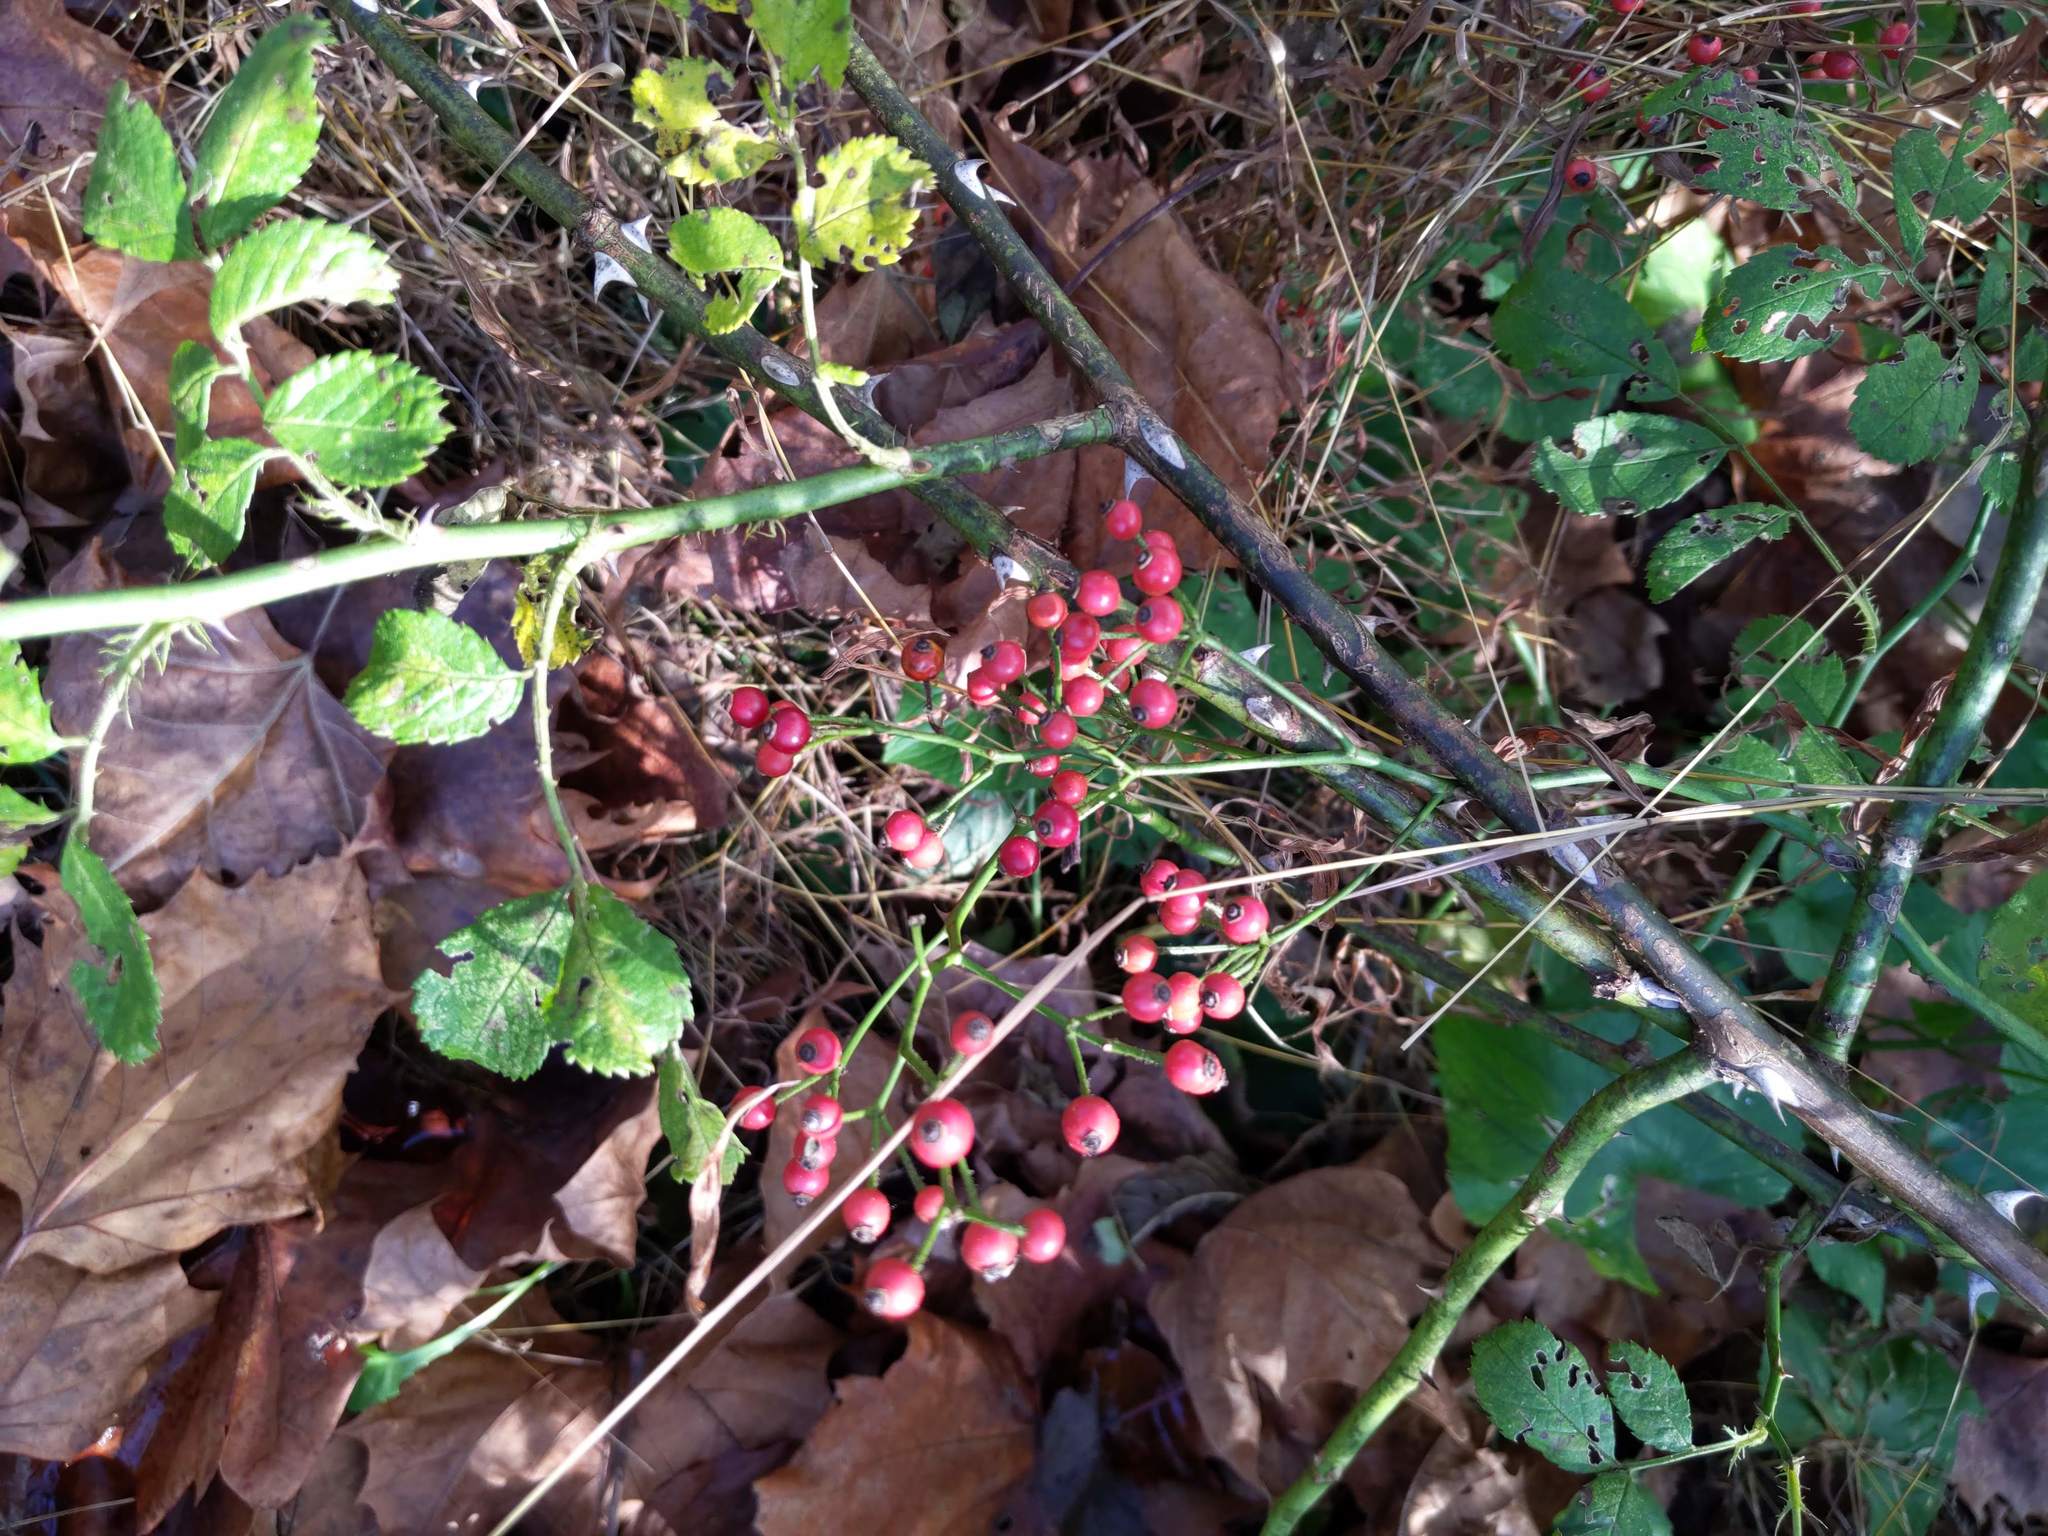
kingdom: Plantae
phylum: Tracheophyta
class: Magnoliopsida
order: Rosales
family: Rosaceae
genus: Rosa
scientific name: Rosa multiflora
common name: Multiflora rose
